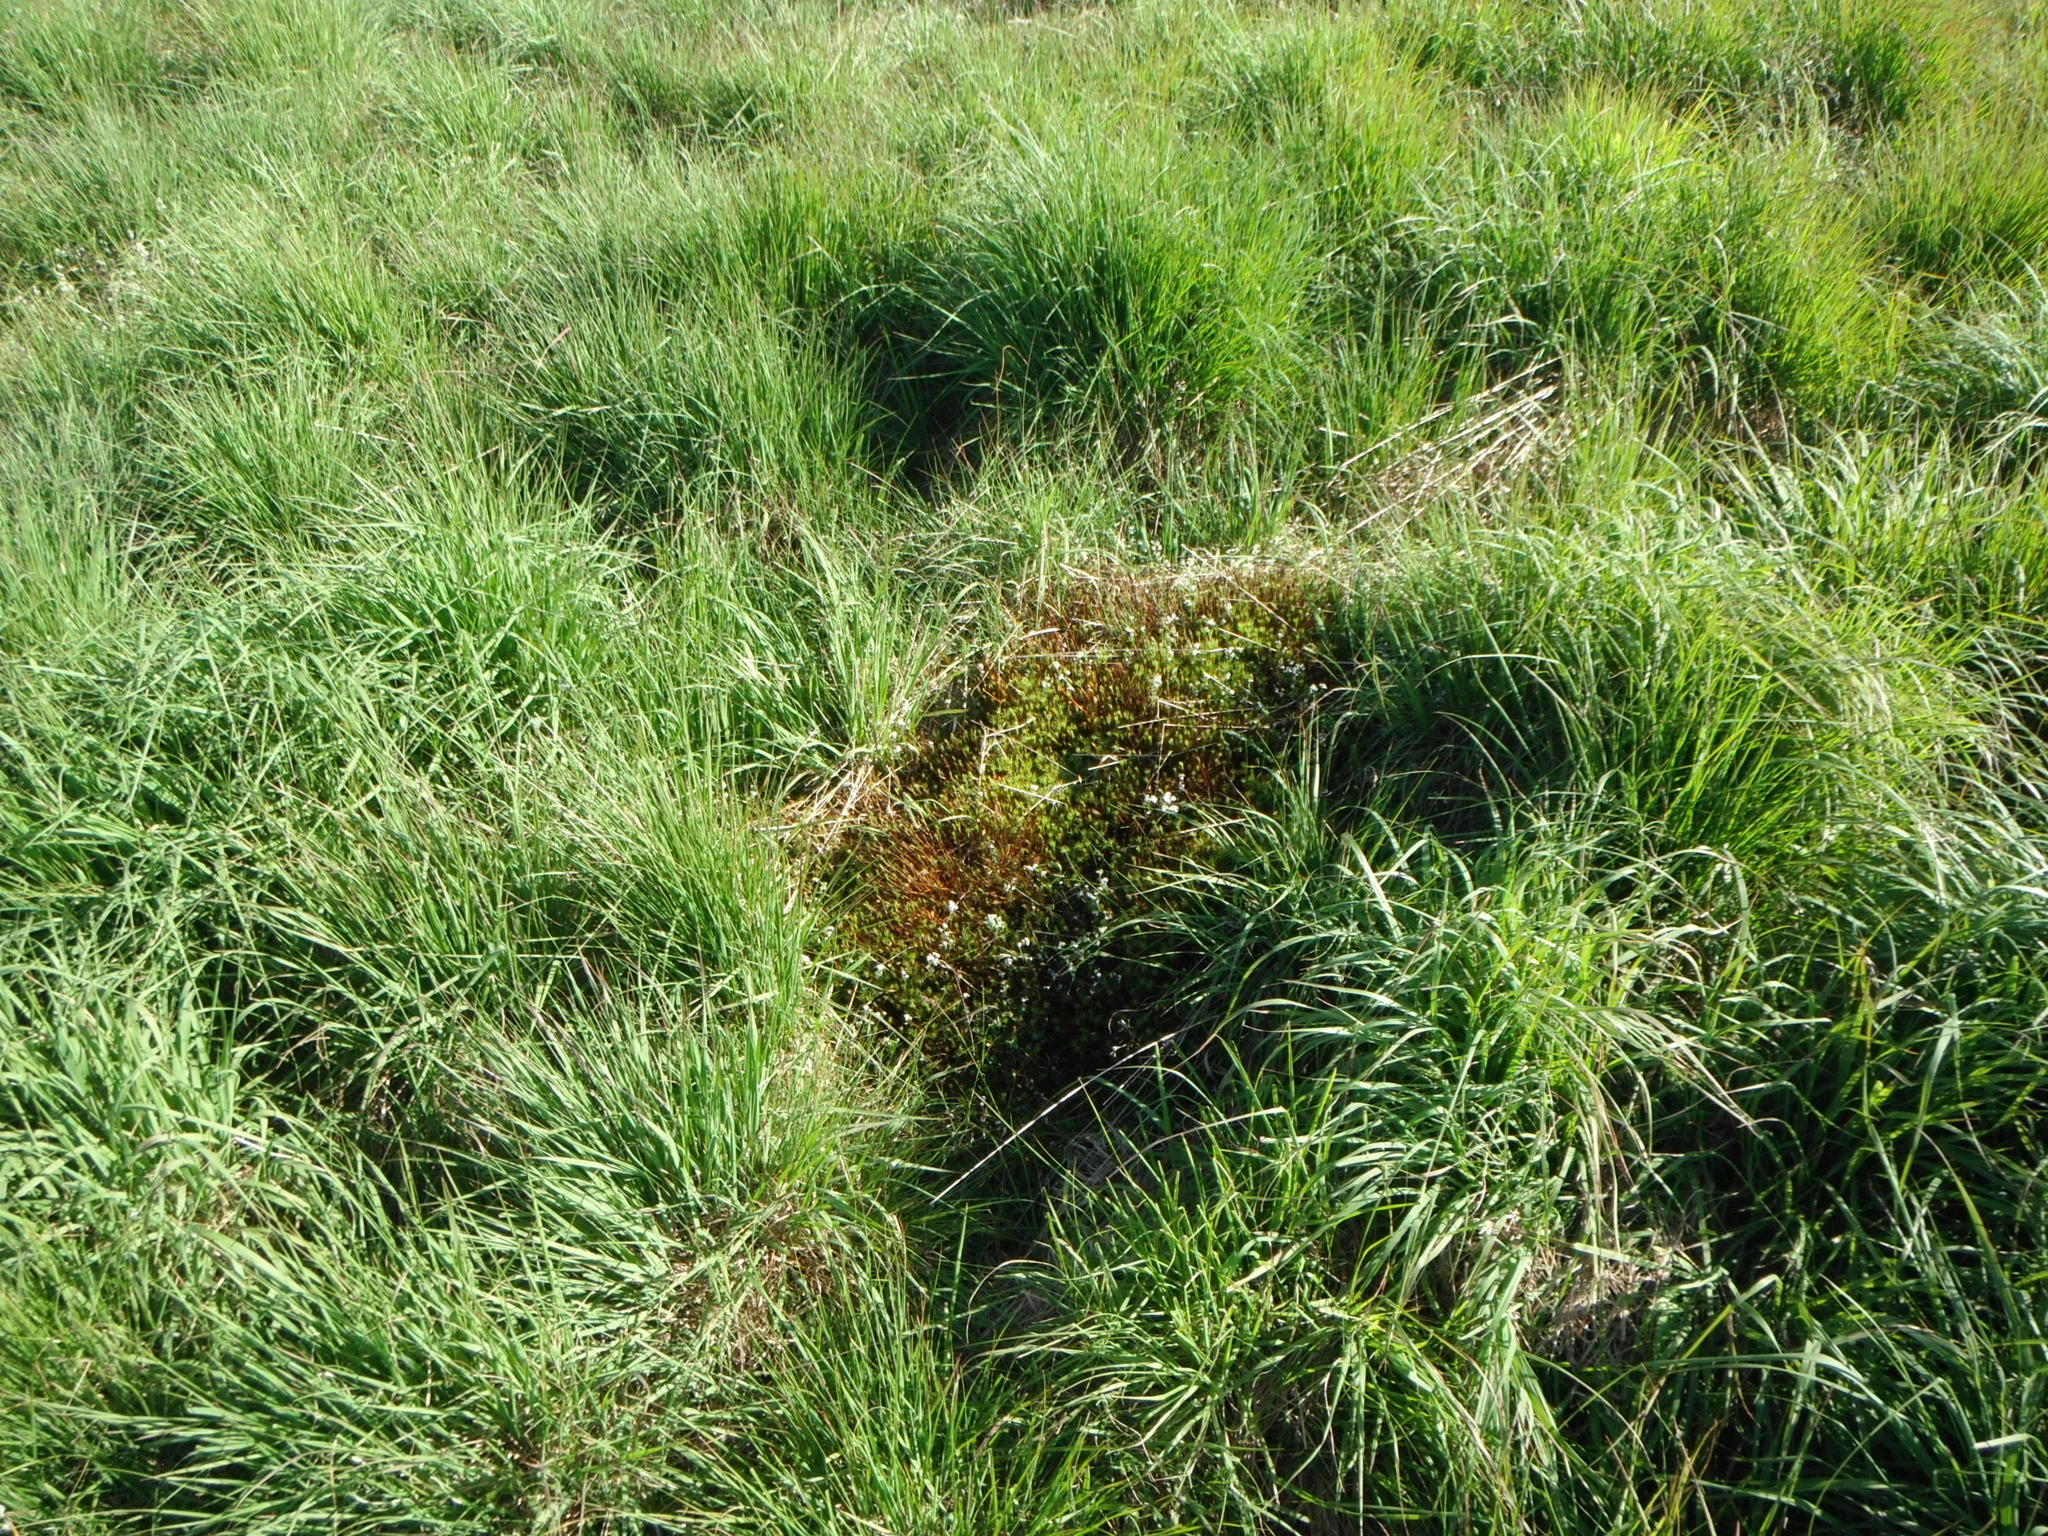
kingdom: Plantae
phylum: Tracheophyta
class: Magnoliopsida
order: Gentianales
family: Rubiaceae
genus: Galium
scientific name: Galium saxatile
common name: Heath bedstraw
